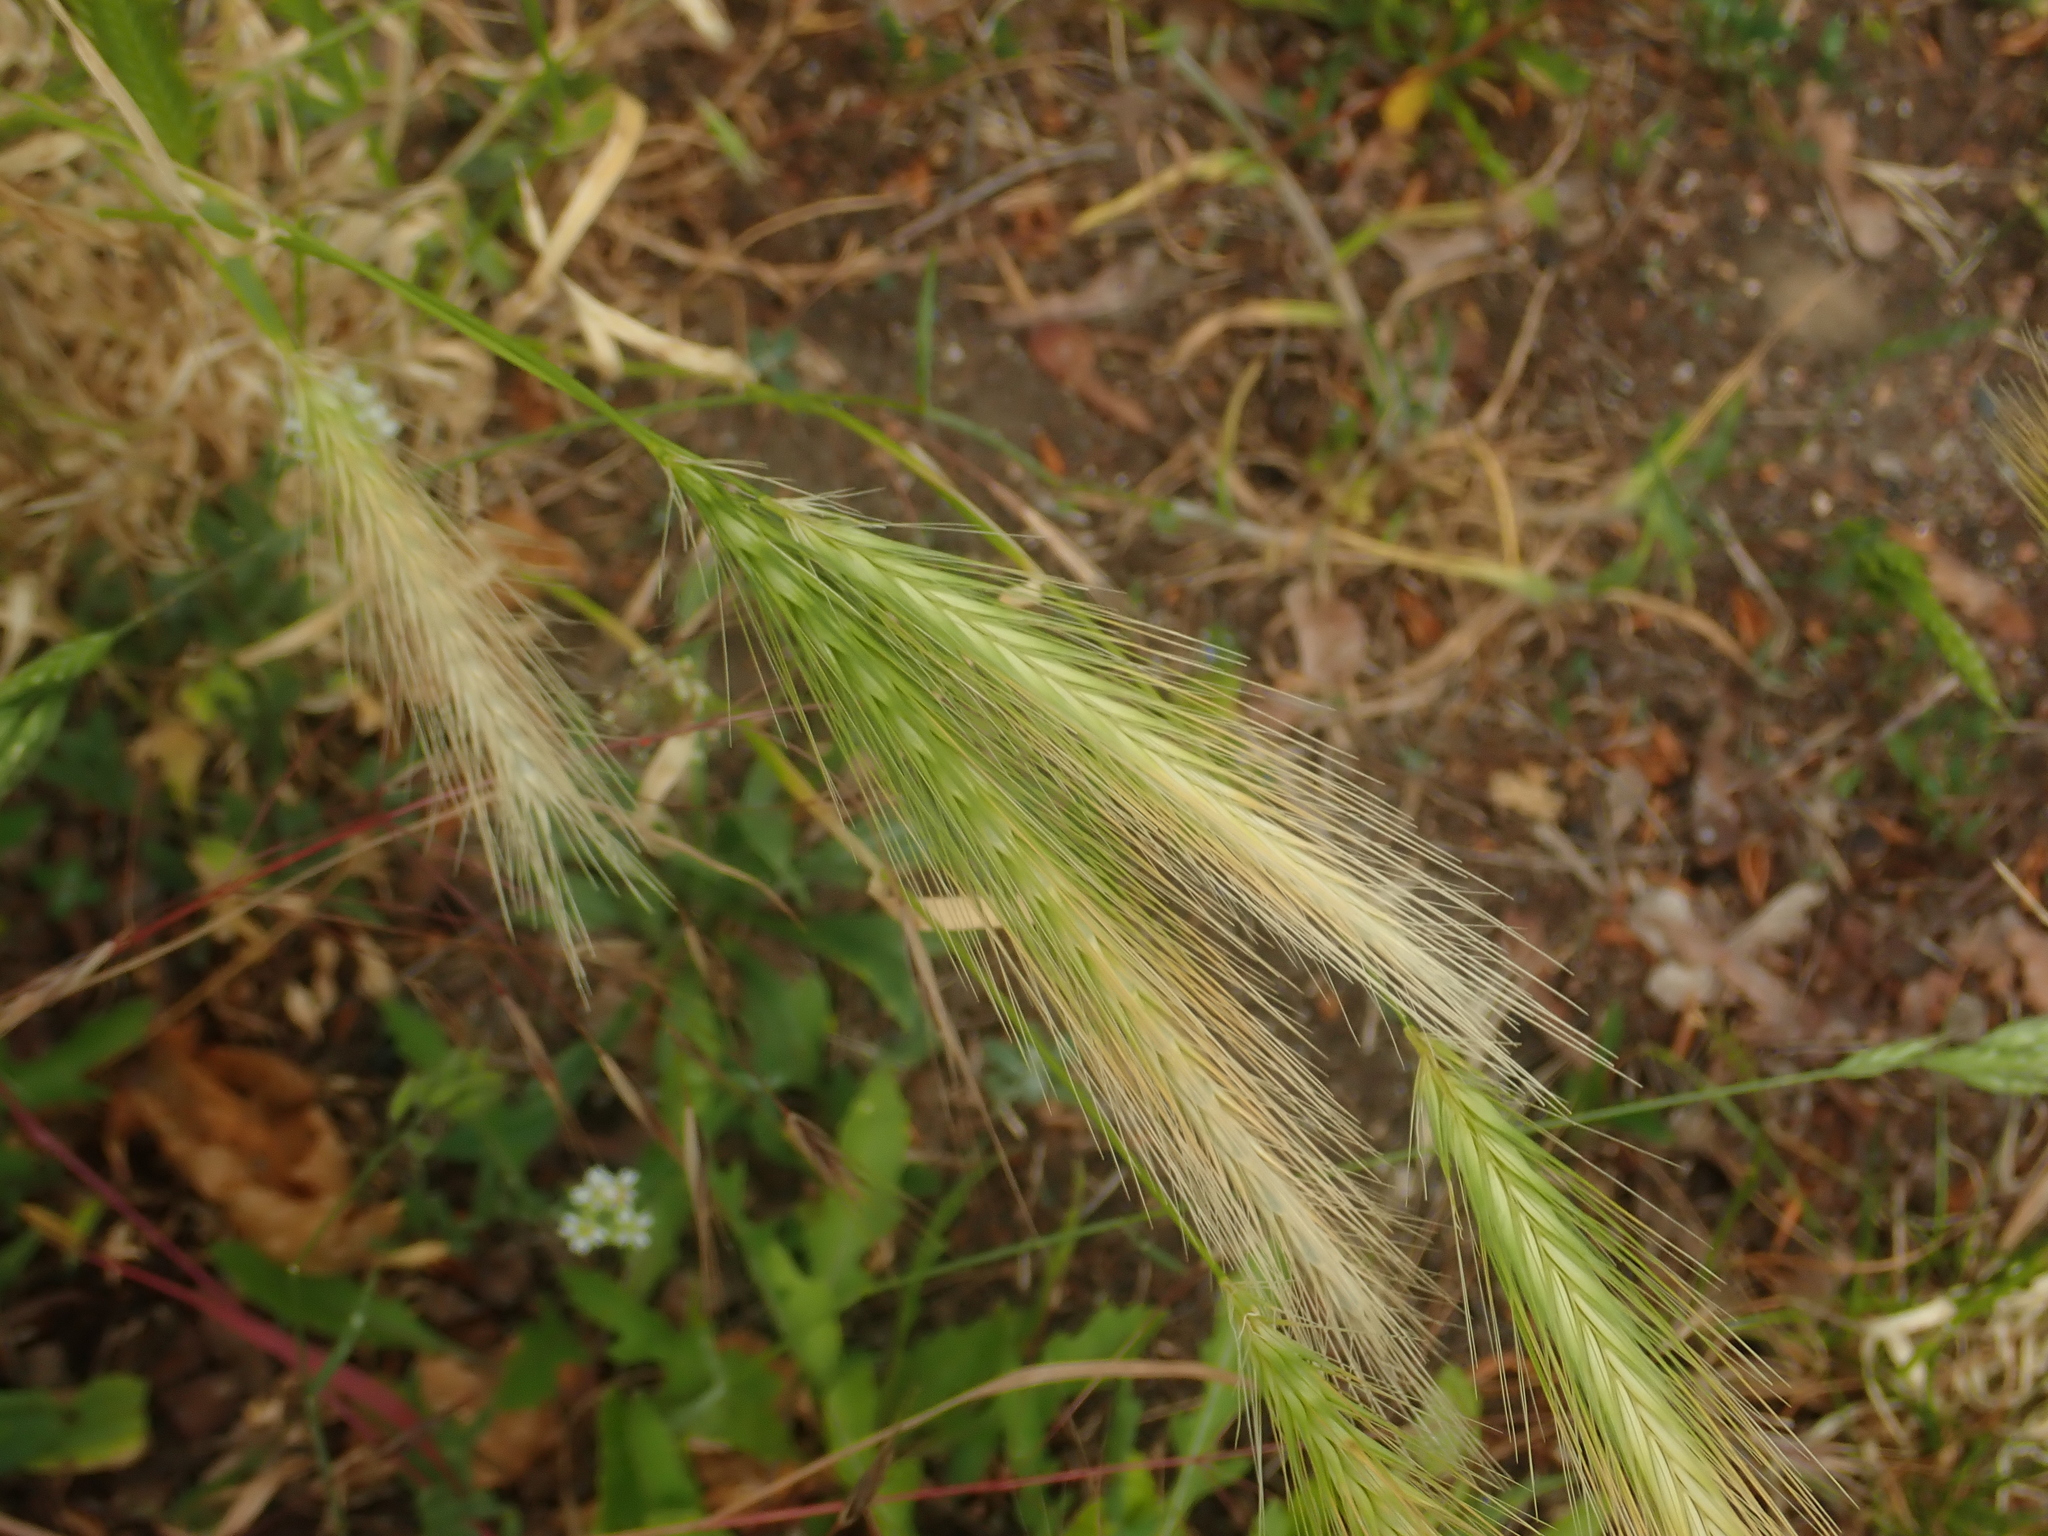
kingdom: Plantae
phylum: Tracheophyta
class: Liliopsida
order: Poales
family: Poaceae
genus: Hordeum
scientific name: Hordeum murinum
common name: Wall barley
